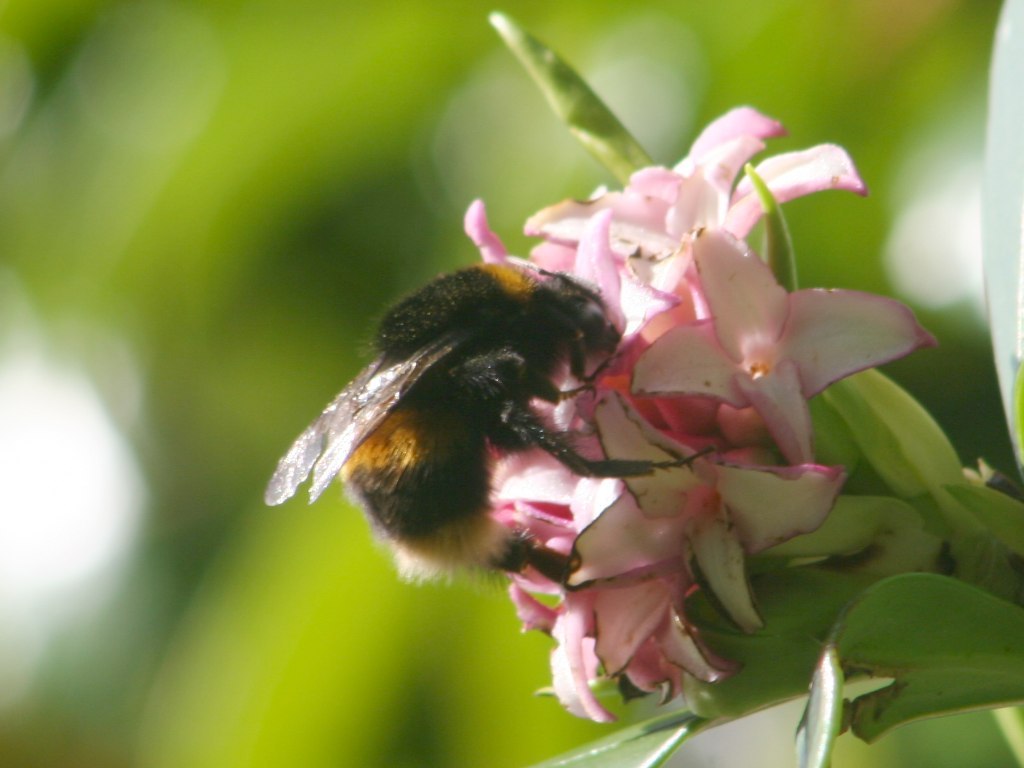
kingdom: Animalia
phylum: Arthropoda
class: Insecta
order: Hymenoptera
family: Apidae
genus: Bombus
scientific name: Bombus terrestris
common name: Buff-tailed bumblebee
